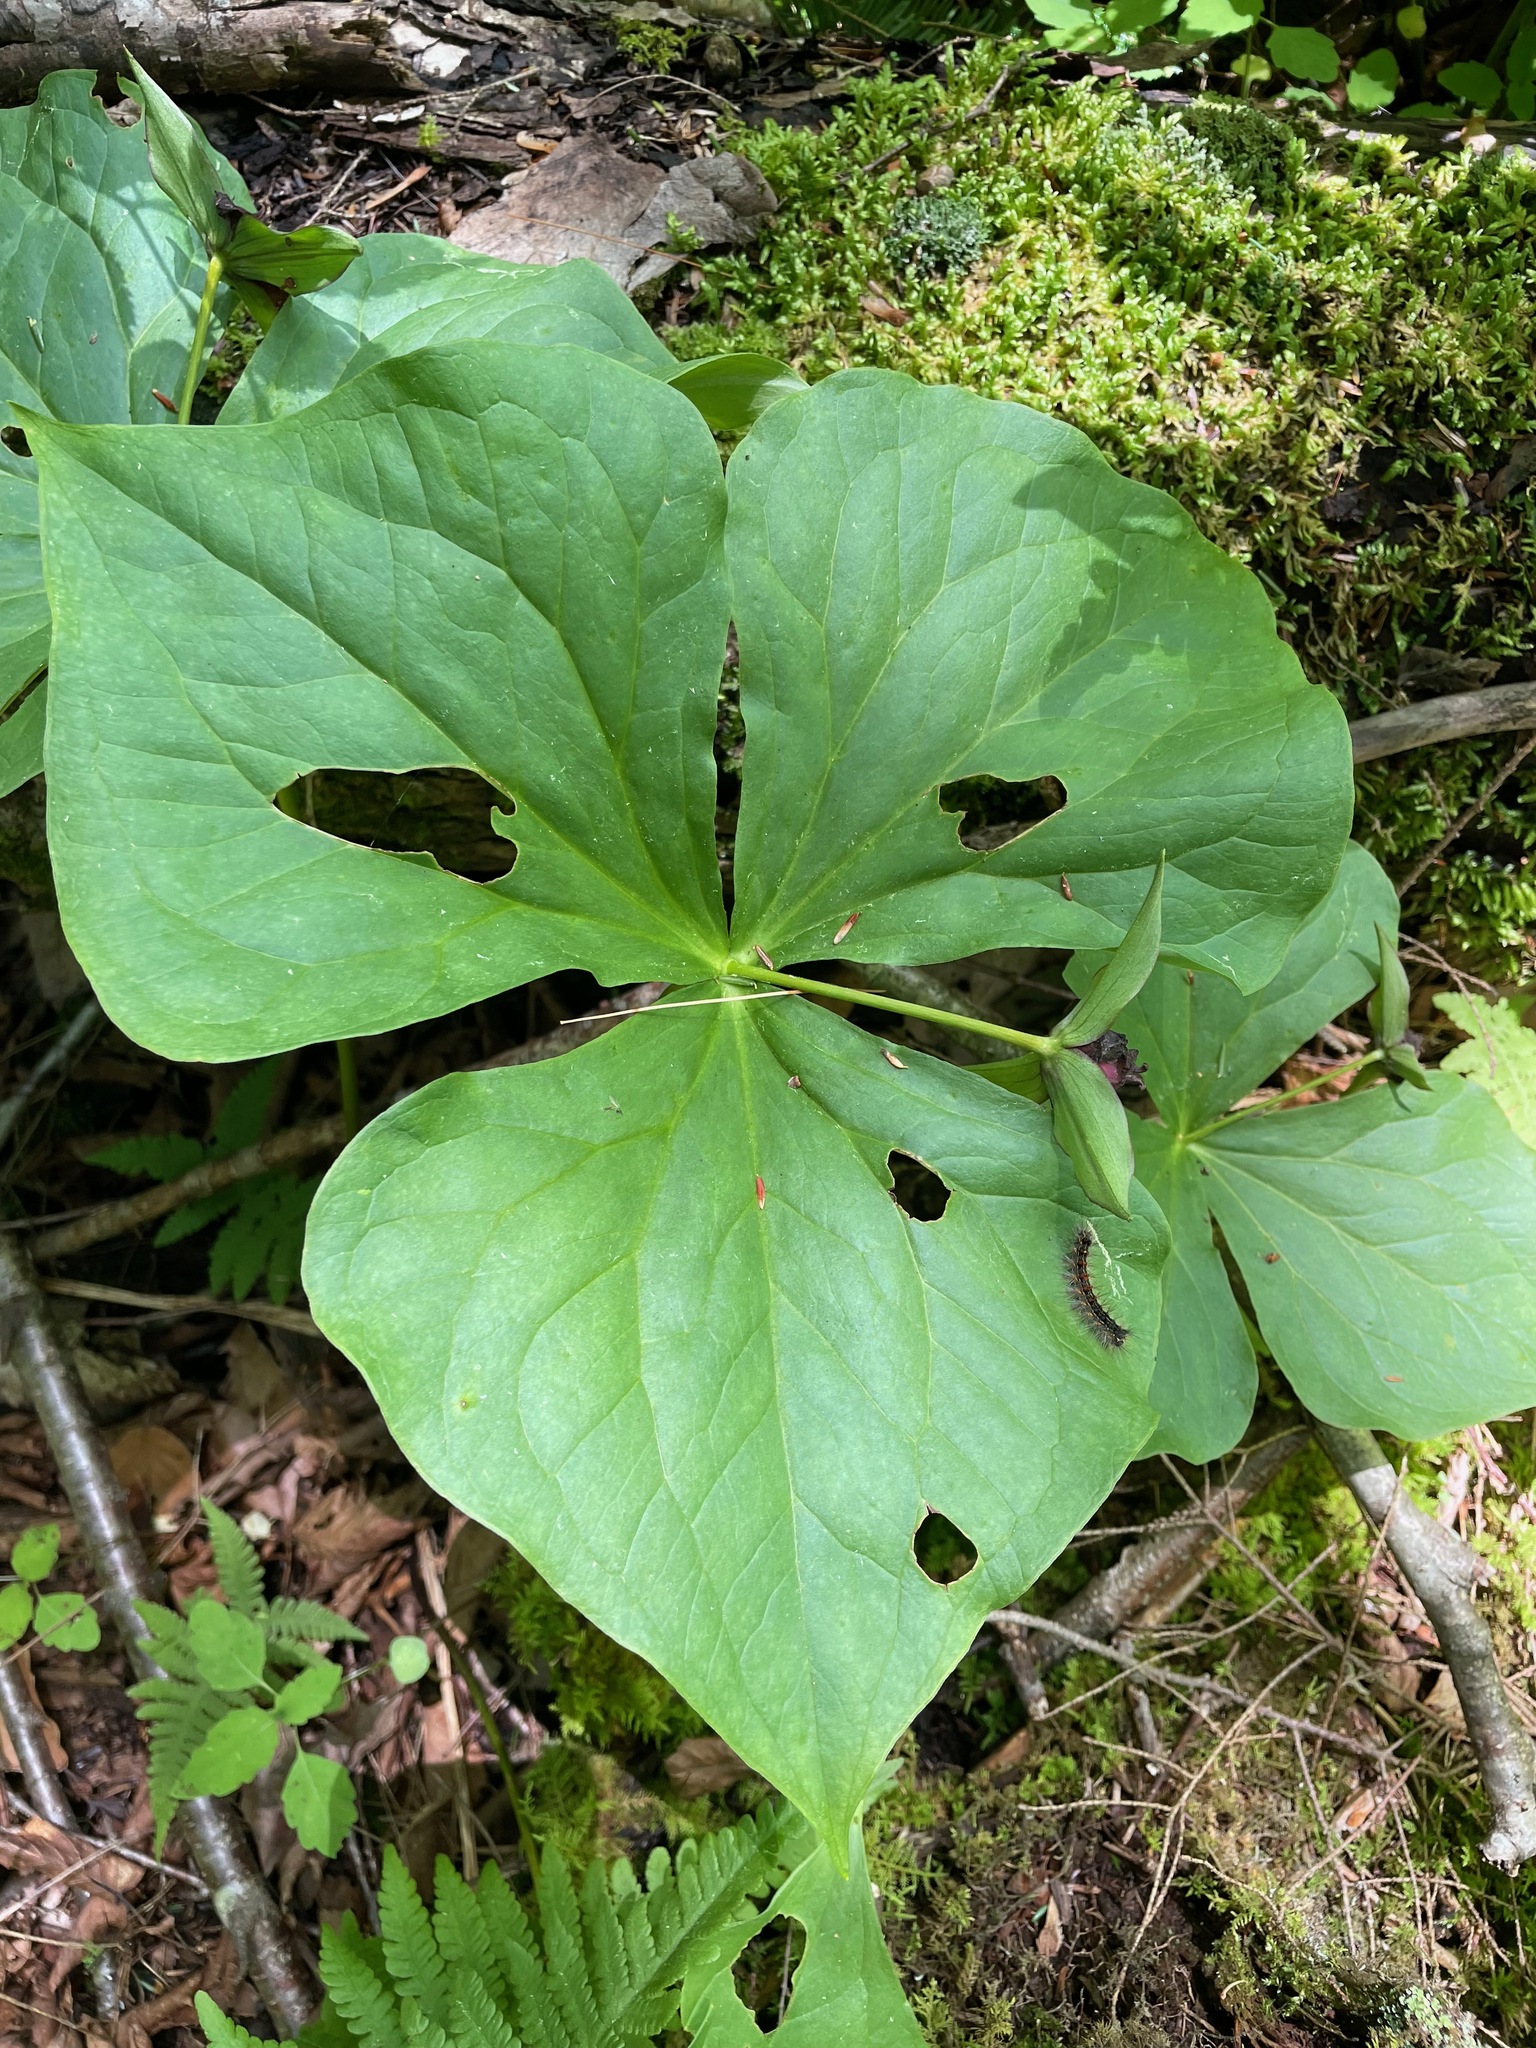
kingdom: Plantae
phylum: Tracheophyta
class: Liliopsida
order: Liliales
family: Melanthiaceae
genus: Trillium
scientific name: Trillium erectum
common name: Purple trillium
